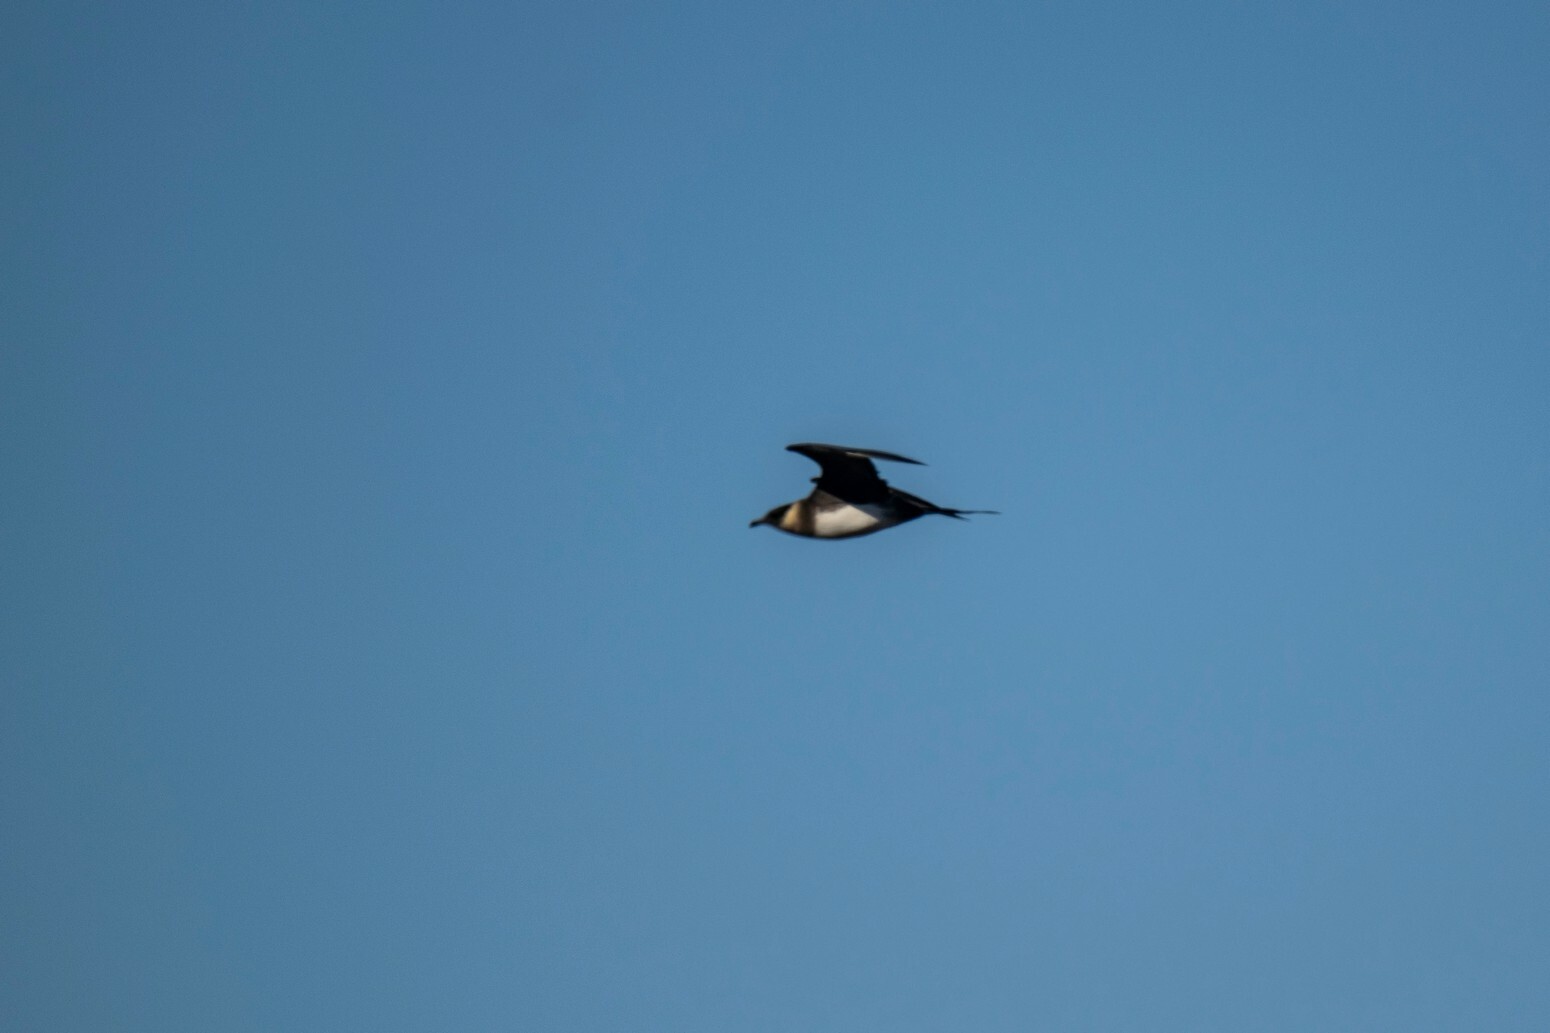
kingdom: Animalia
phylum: Chordata
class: Aves
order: Charadriiformes
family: Stercorariidae
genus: Stercorarius
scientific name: Stercorarius longicaudus
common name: Long-tailed jaeger
